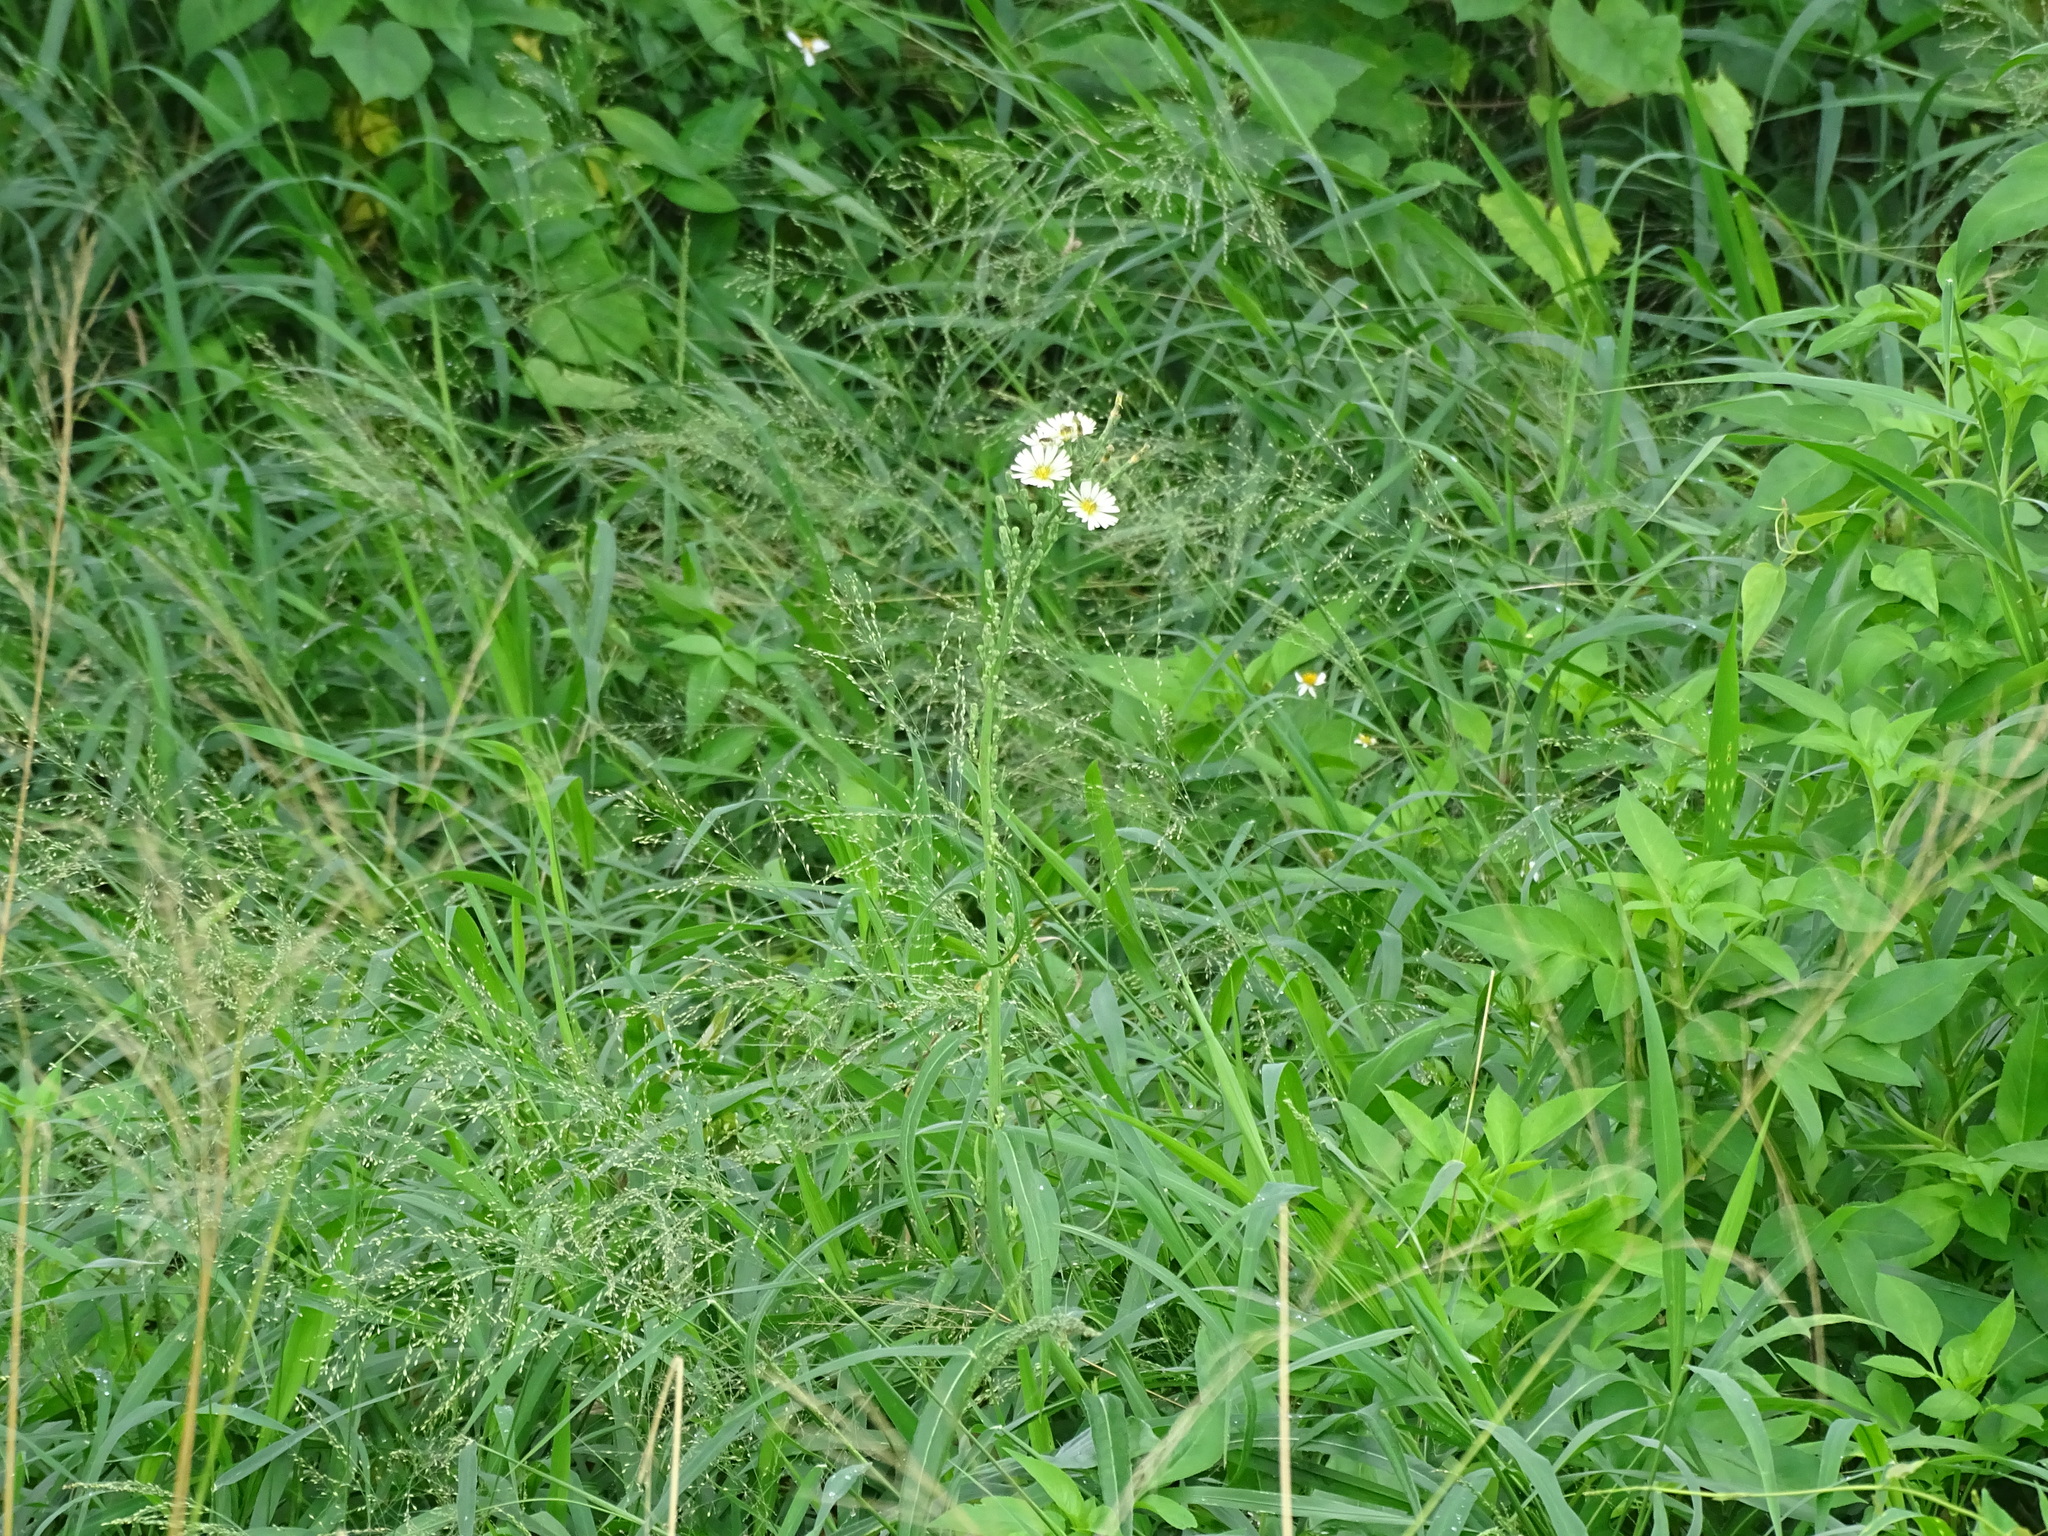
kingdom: Plantae
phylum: Tracheophyta
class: Magnoliopsida
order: Asterales
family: Asteraceae
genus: Lactuca
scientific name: Lactuca indica
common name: Wild lettuce
